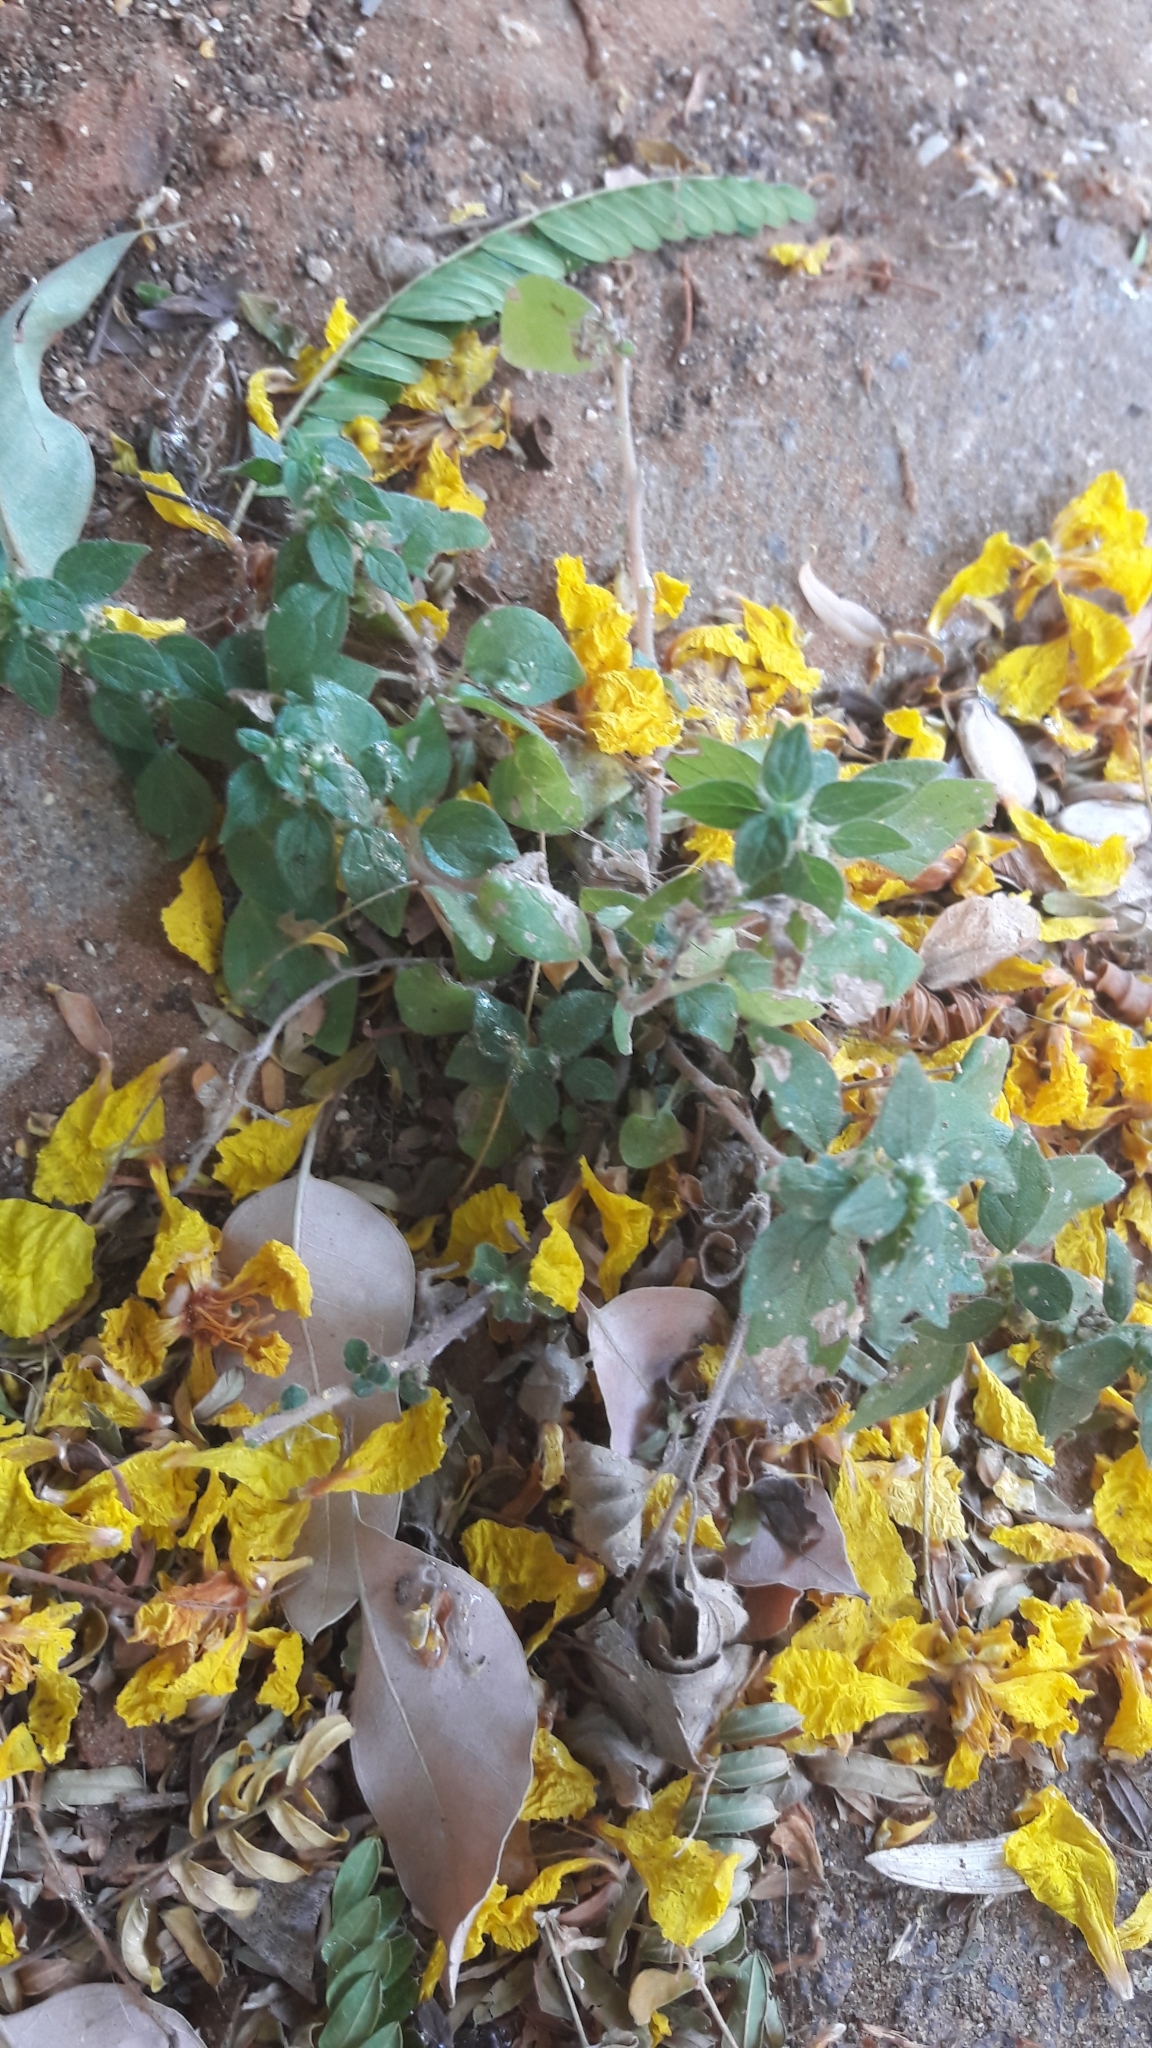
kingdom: Plantae
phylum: Tracheophyta
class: Magnoliopsida
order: Rosales
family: Urticaceae
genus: Parietaria
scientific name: Parietaria judaica
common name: Pellitory-of-the-wall
